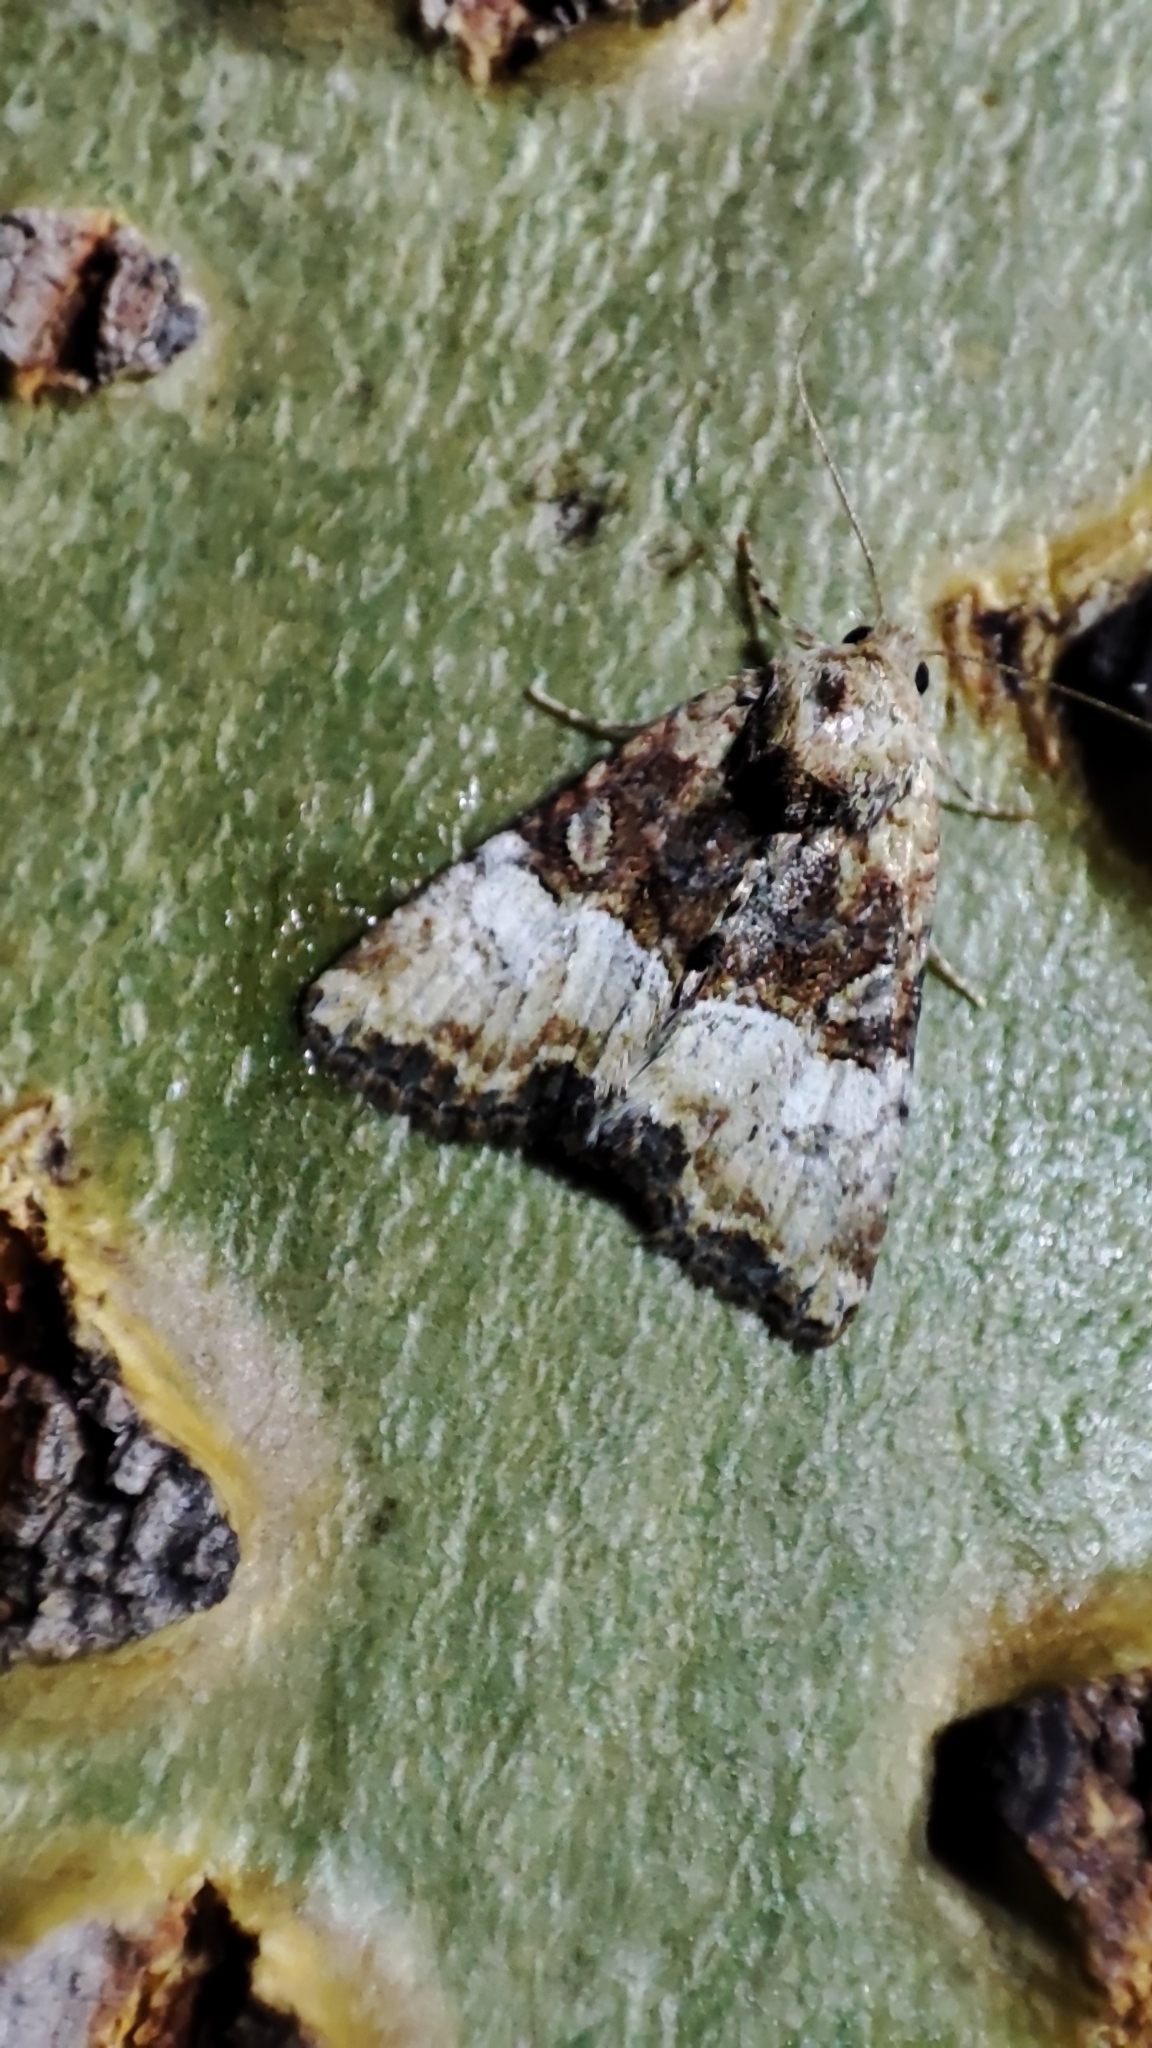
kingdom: Animalia
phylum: Arthropoda
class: Insecta
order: Lepidoptera
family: Noctuidae
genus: Mesoligia
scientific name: Mesoligia furuncula
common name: Cloaked minor
